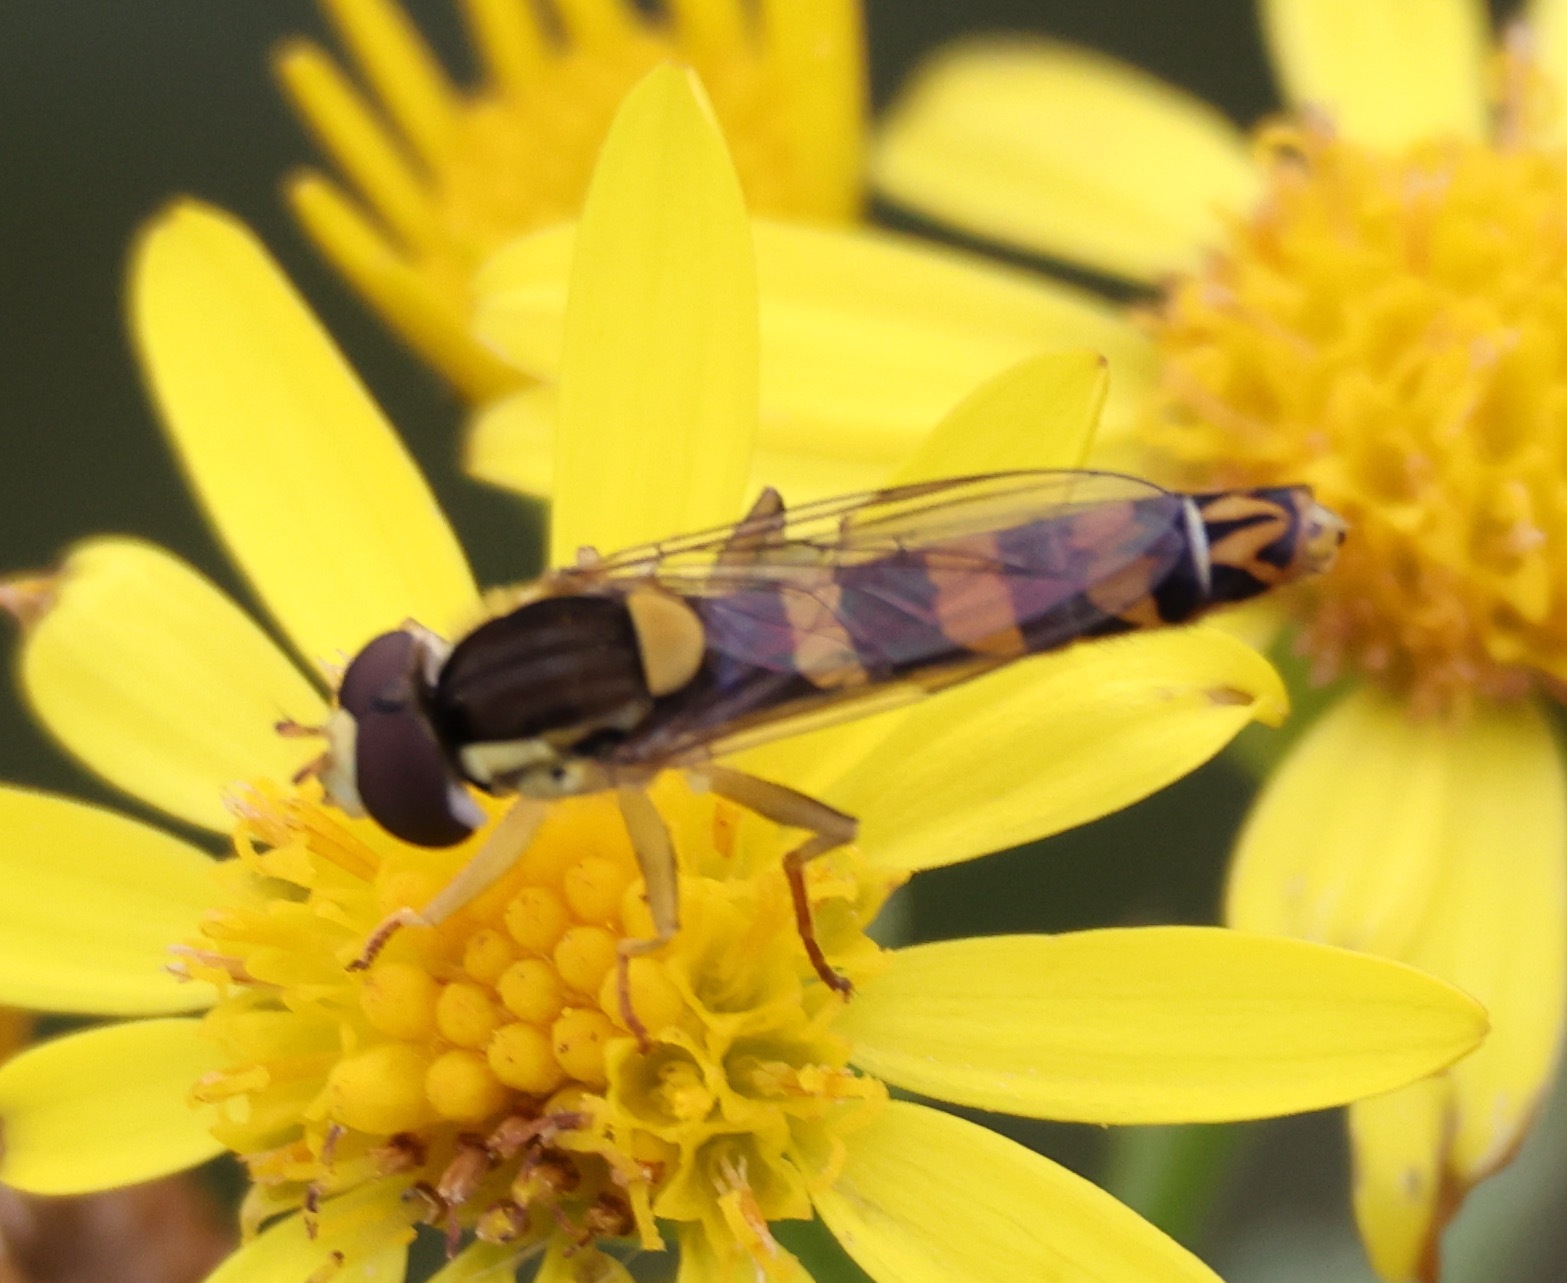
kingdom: Animalia
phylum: Arthropoda
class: Insecta
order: Diptera
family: Syrphidae
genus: Sphaerophoria
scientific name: Sphaerophoria scripta
